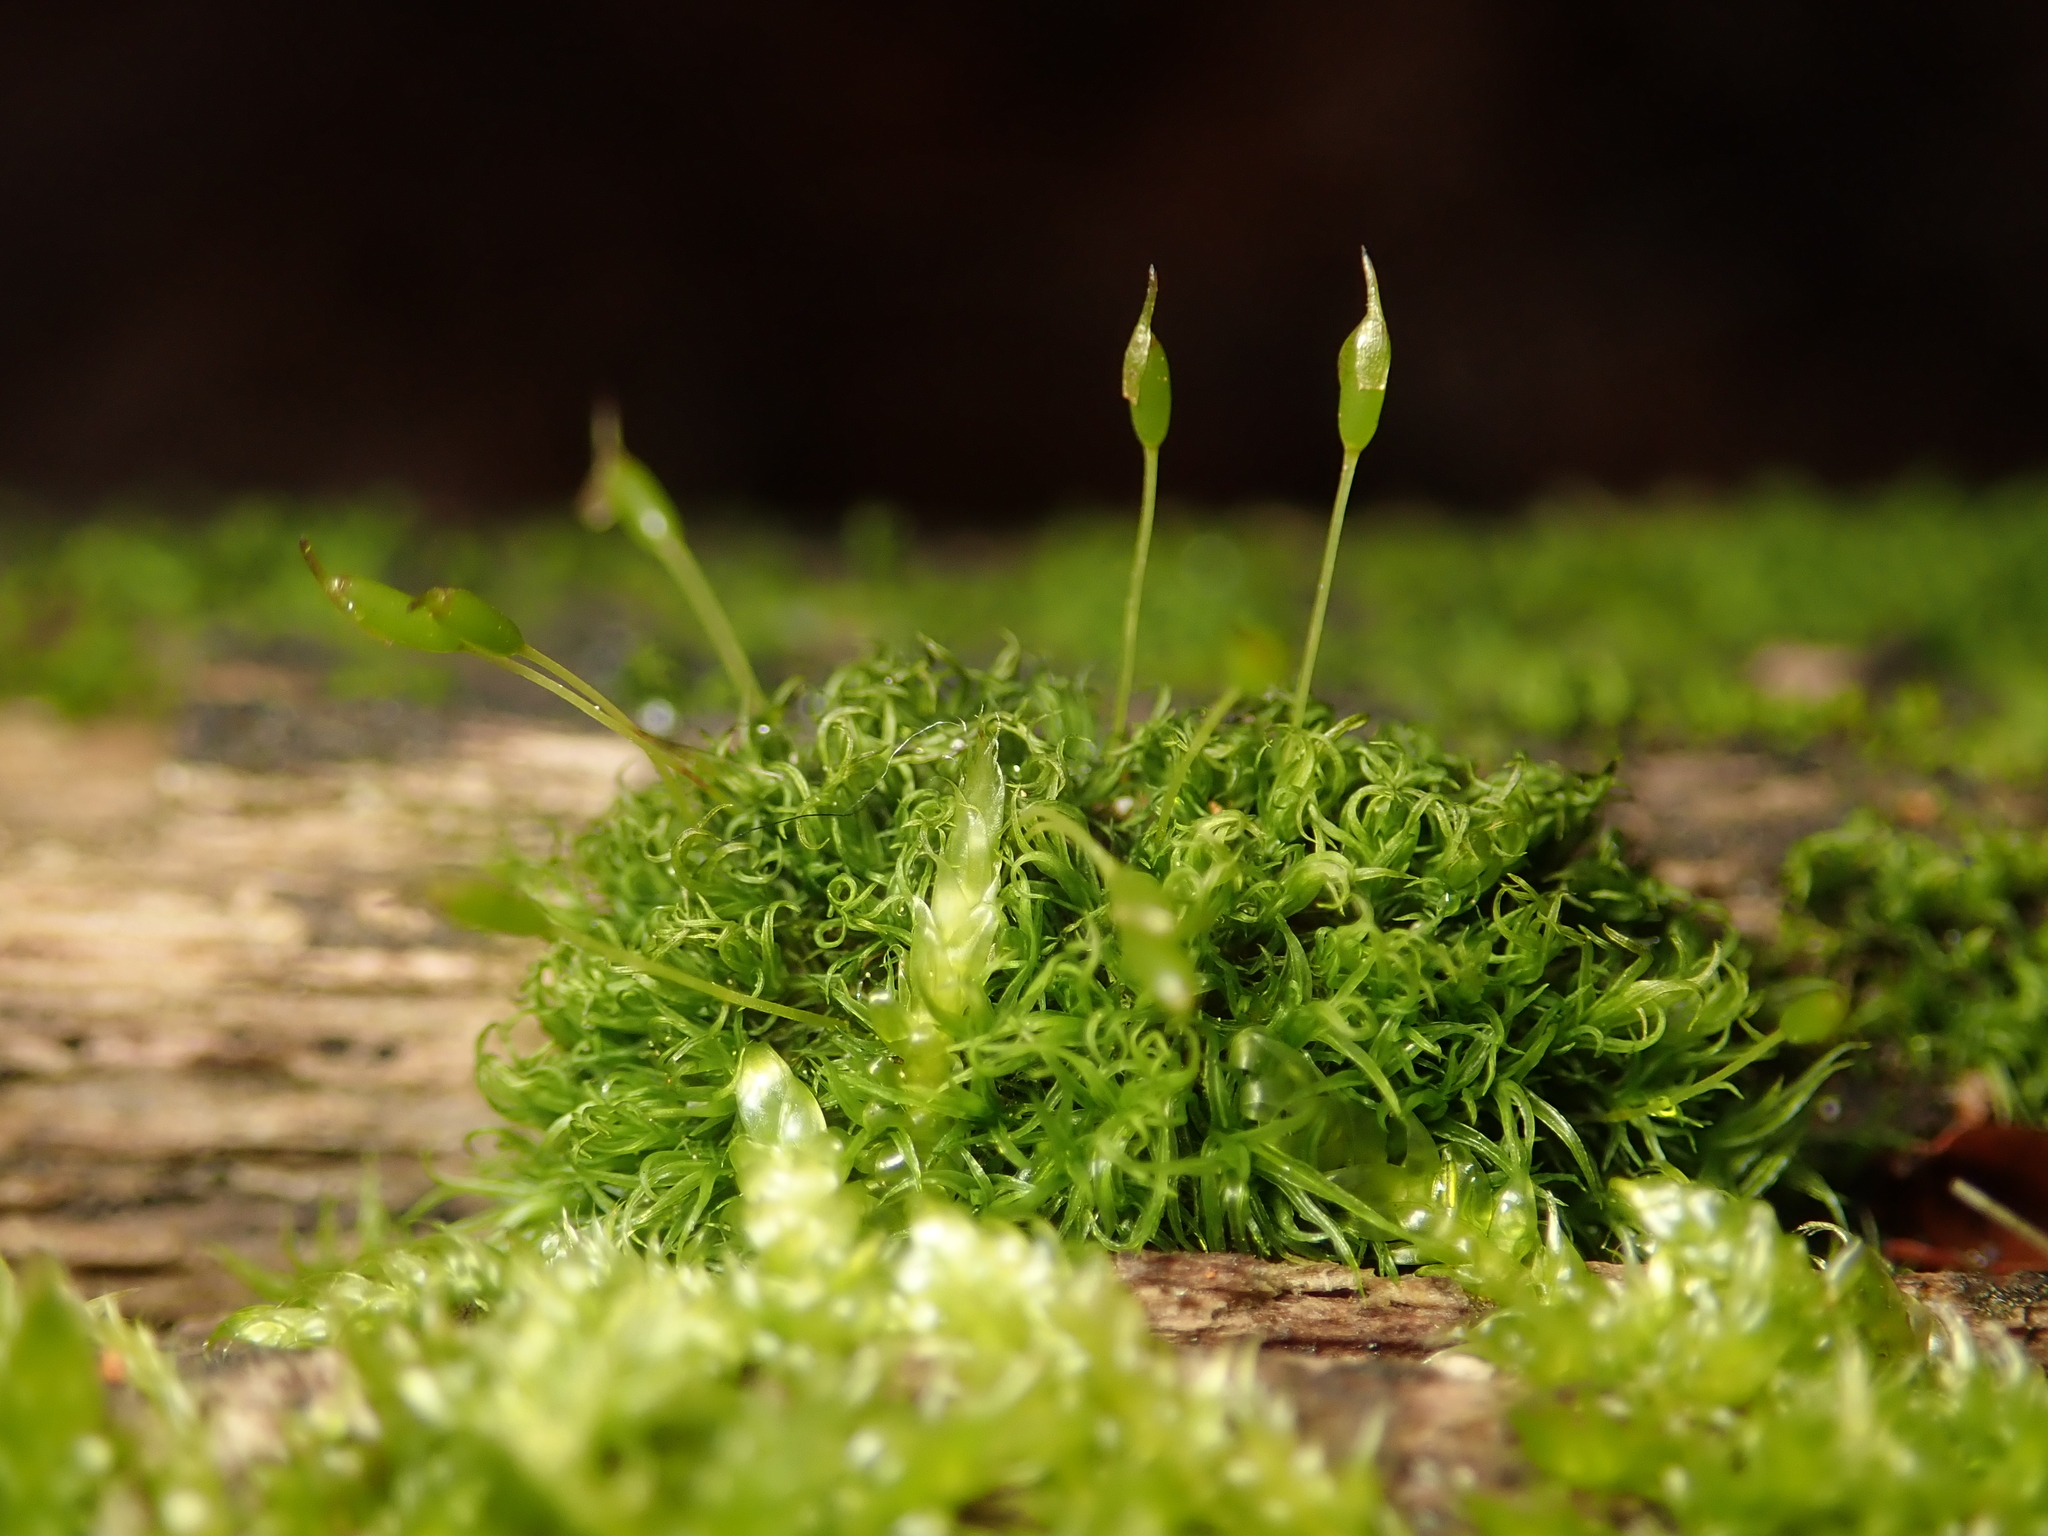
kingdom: Plantae
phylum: Bryophyta
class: Bryopsida
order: Dicranales
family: Rhabdoweisiaceae
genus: Dicranoweisia
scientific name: Dicranoweisia cirrata
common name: Common pincushion
